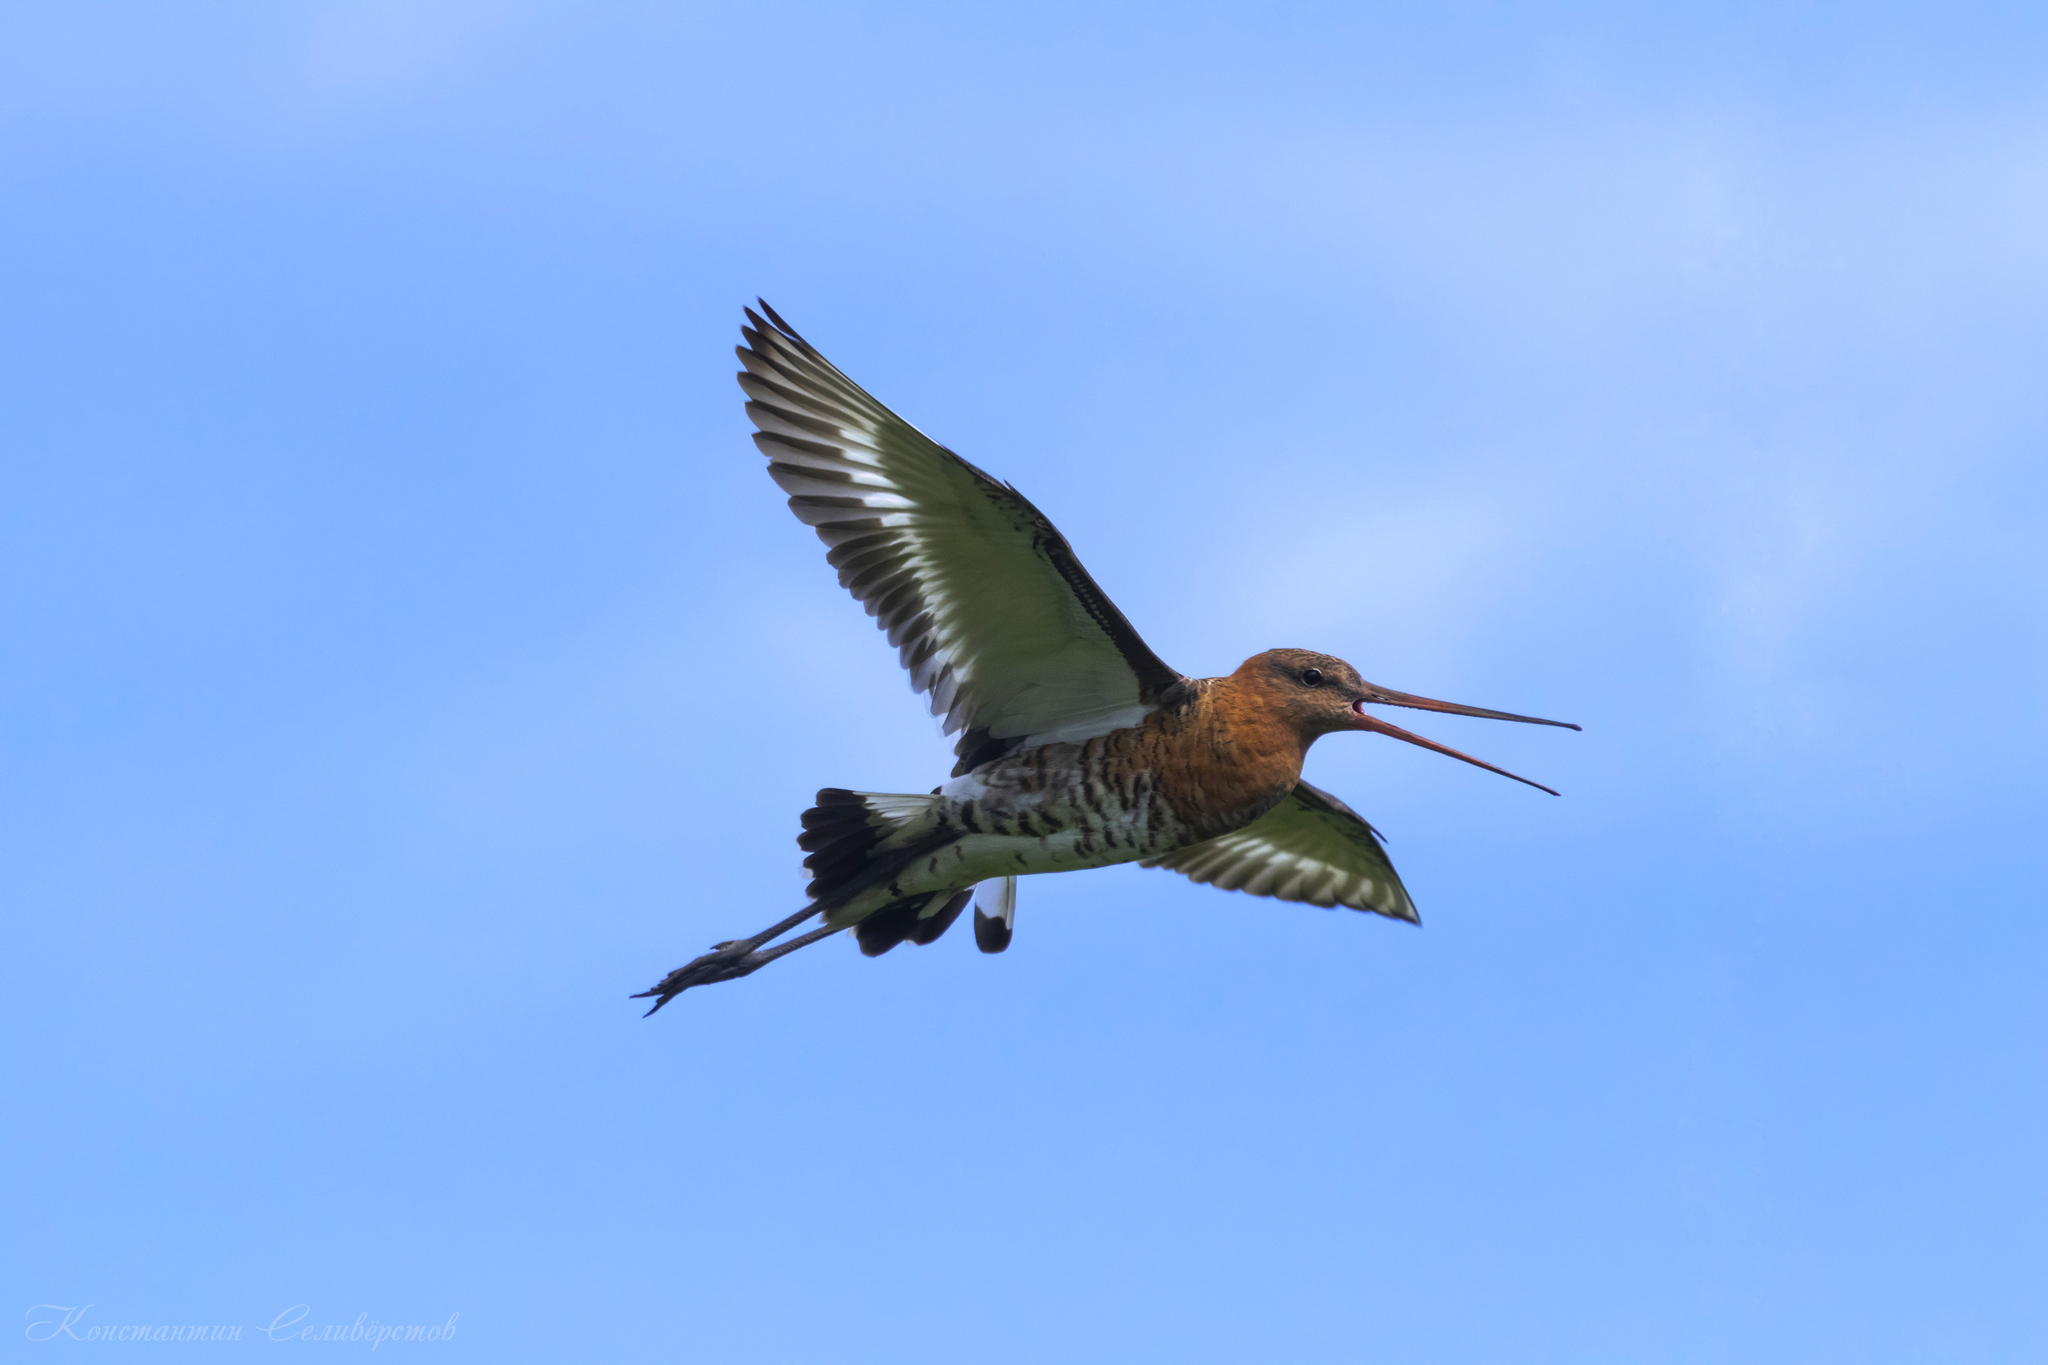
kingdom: Animalia
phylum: Chordata
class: Aves
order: Charadriiformes
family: Scolopacidae
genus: Limosa
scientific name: Limosa limosa
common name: Black-tailed godwit
